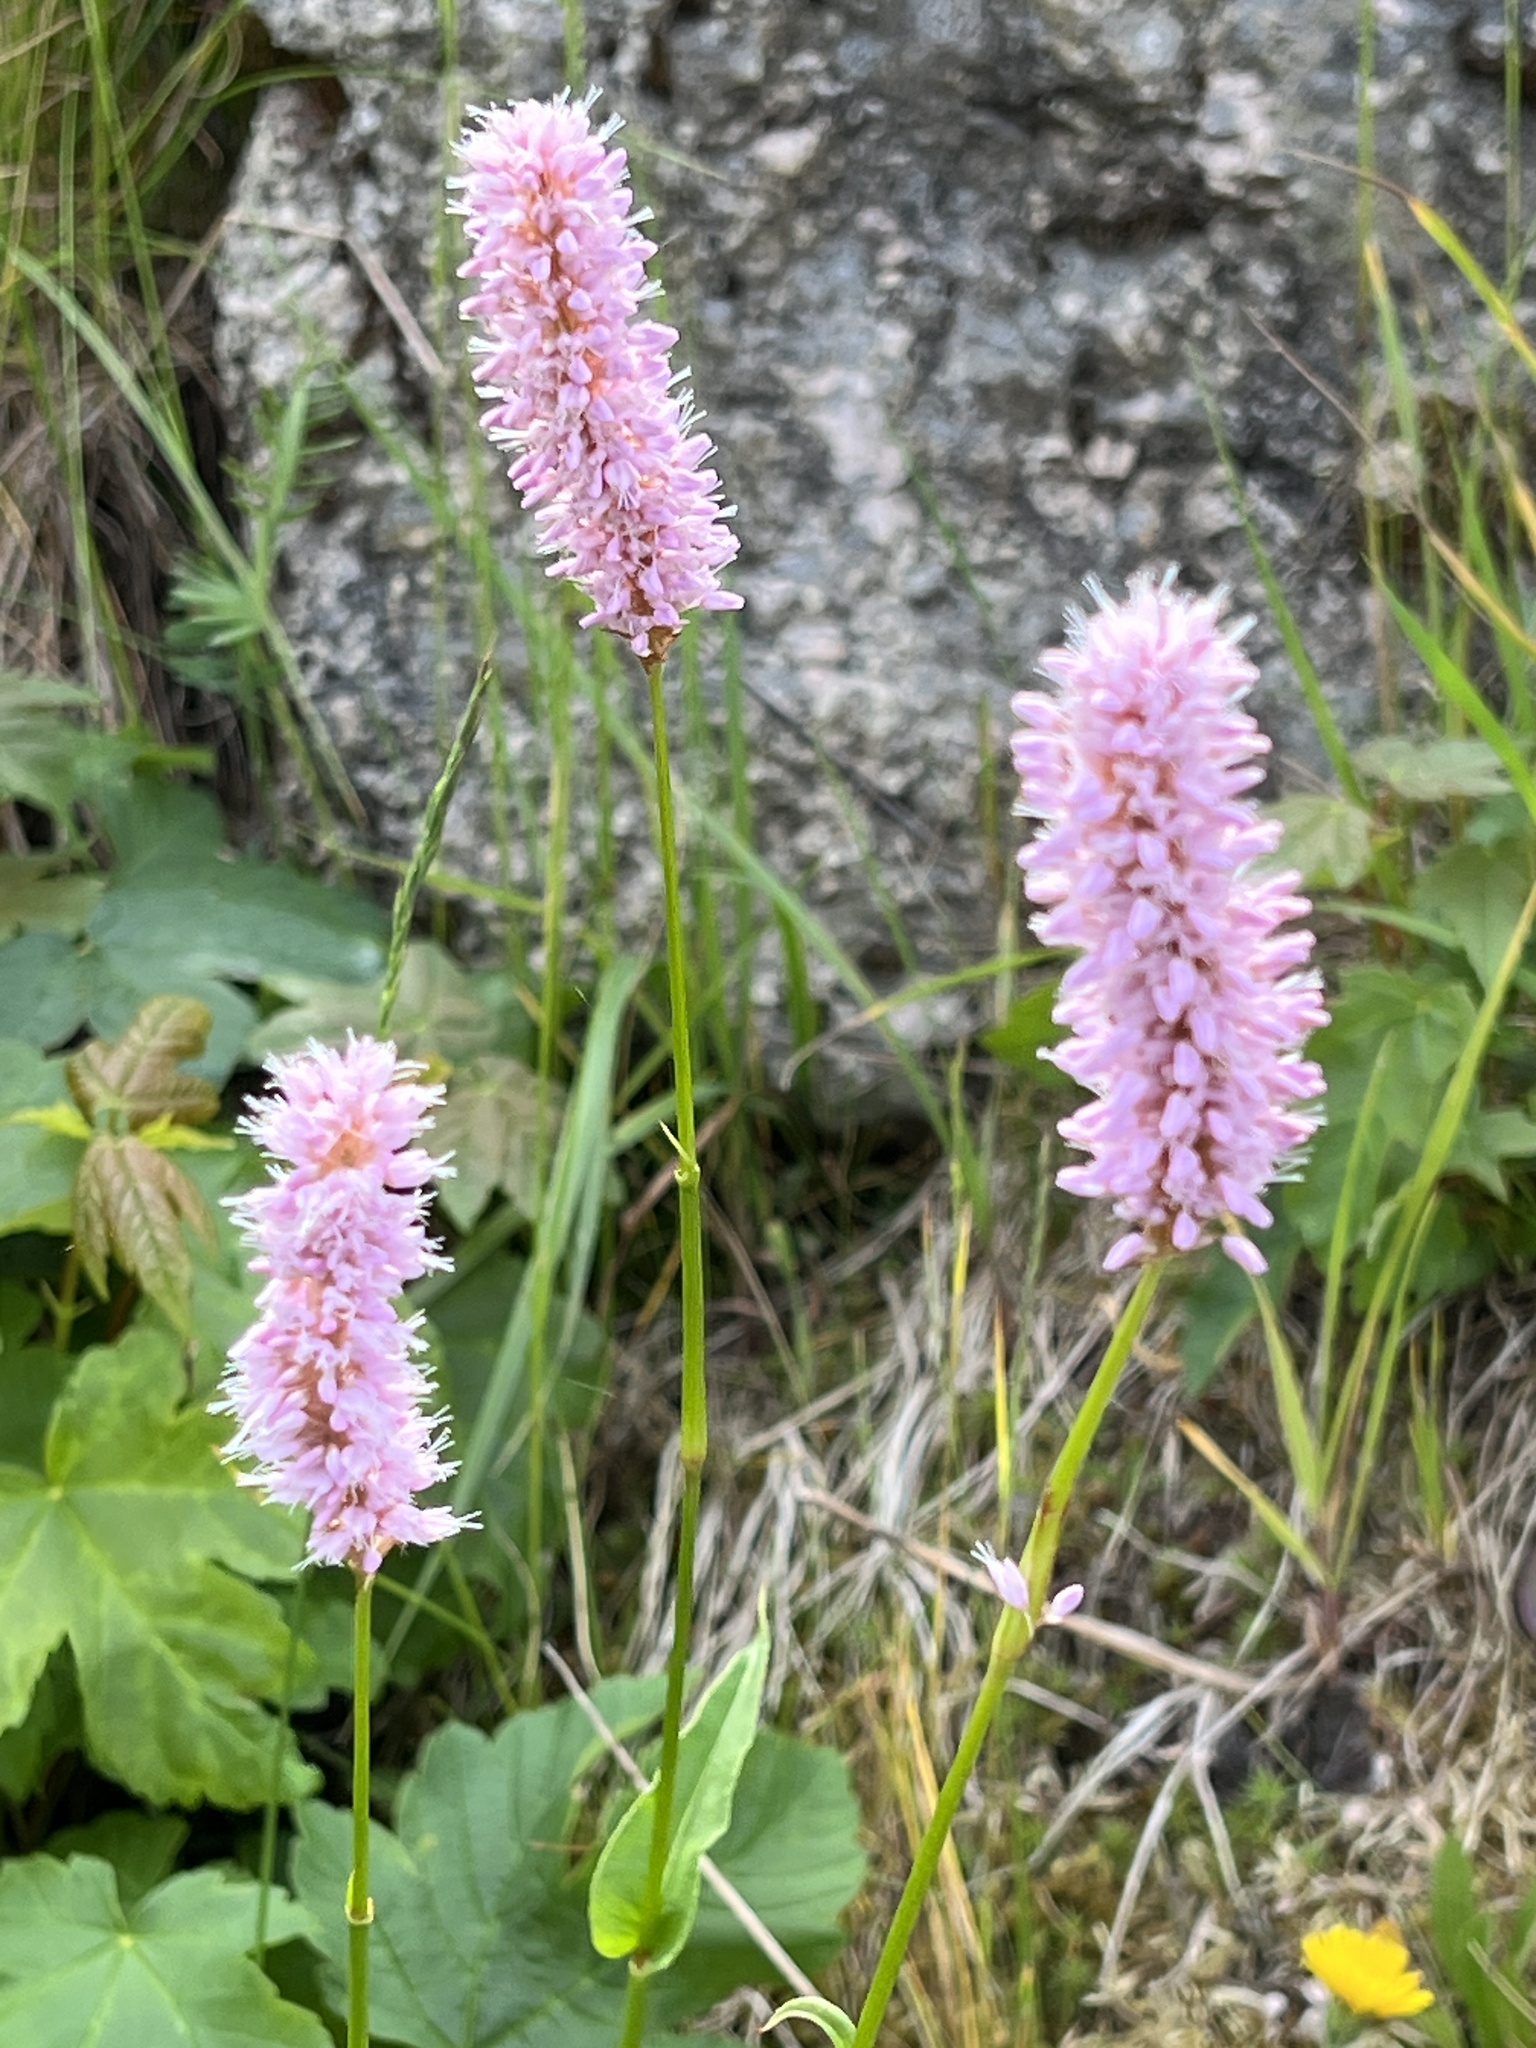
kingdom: Plantae
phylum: Tracheophyta
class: Magnoliopsida
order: Caryophyllales
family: Polygonaceae
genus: Bistorta
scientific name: Bistorta officinalis
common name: Common bistort
